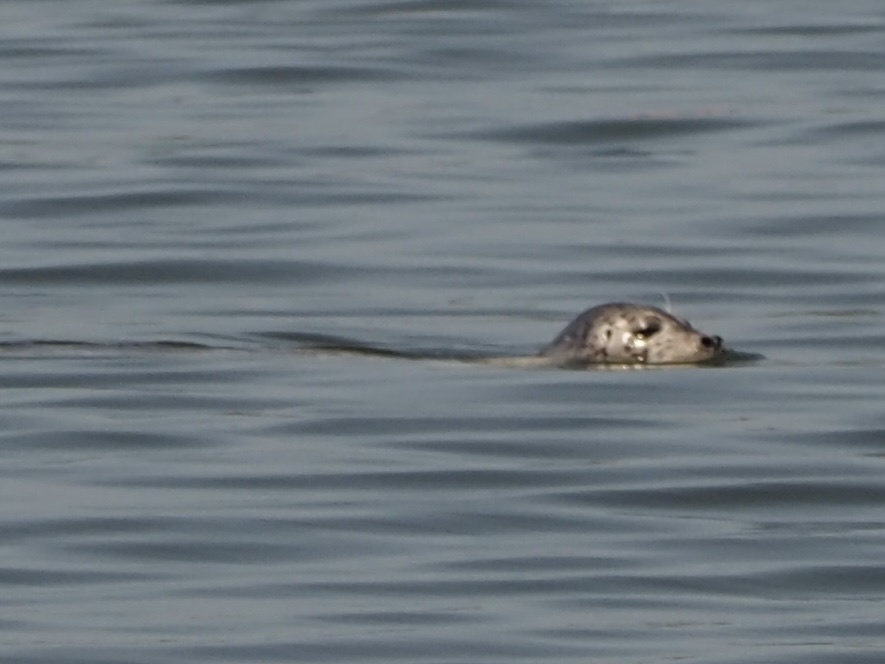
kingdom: Animalia
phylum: Chordata
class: Mammalia
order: Carnivora
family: Phocidae
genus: Phoca
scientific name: Phoca vitulina
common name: Harbor seal
